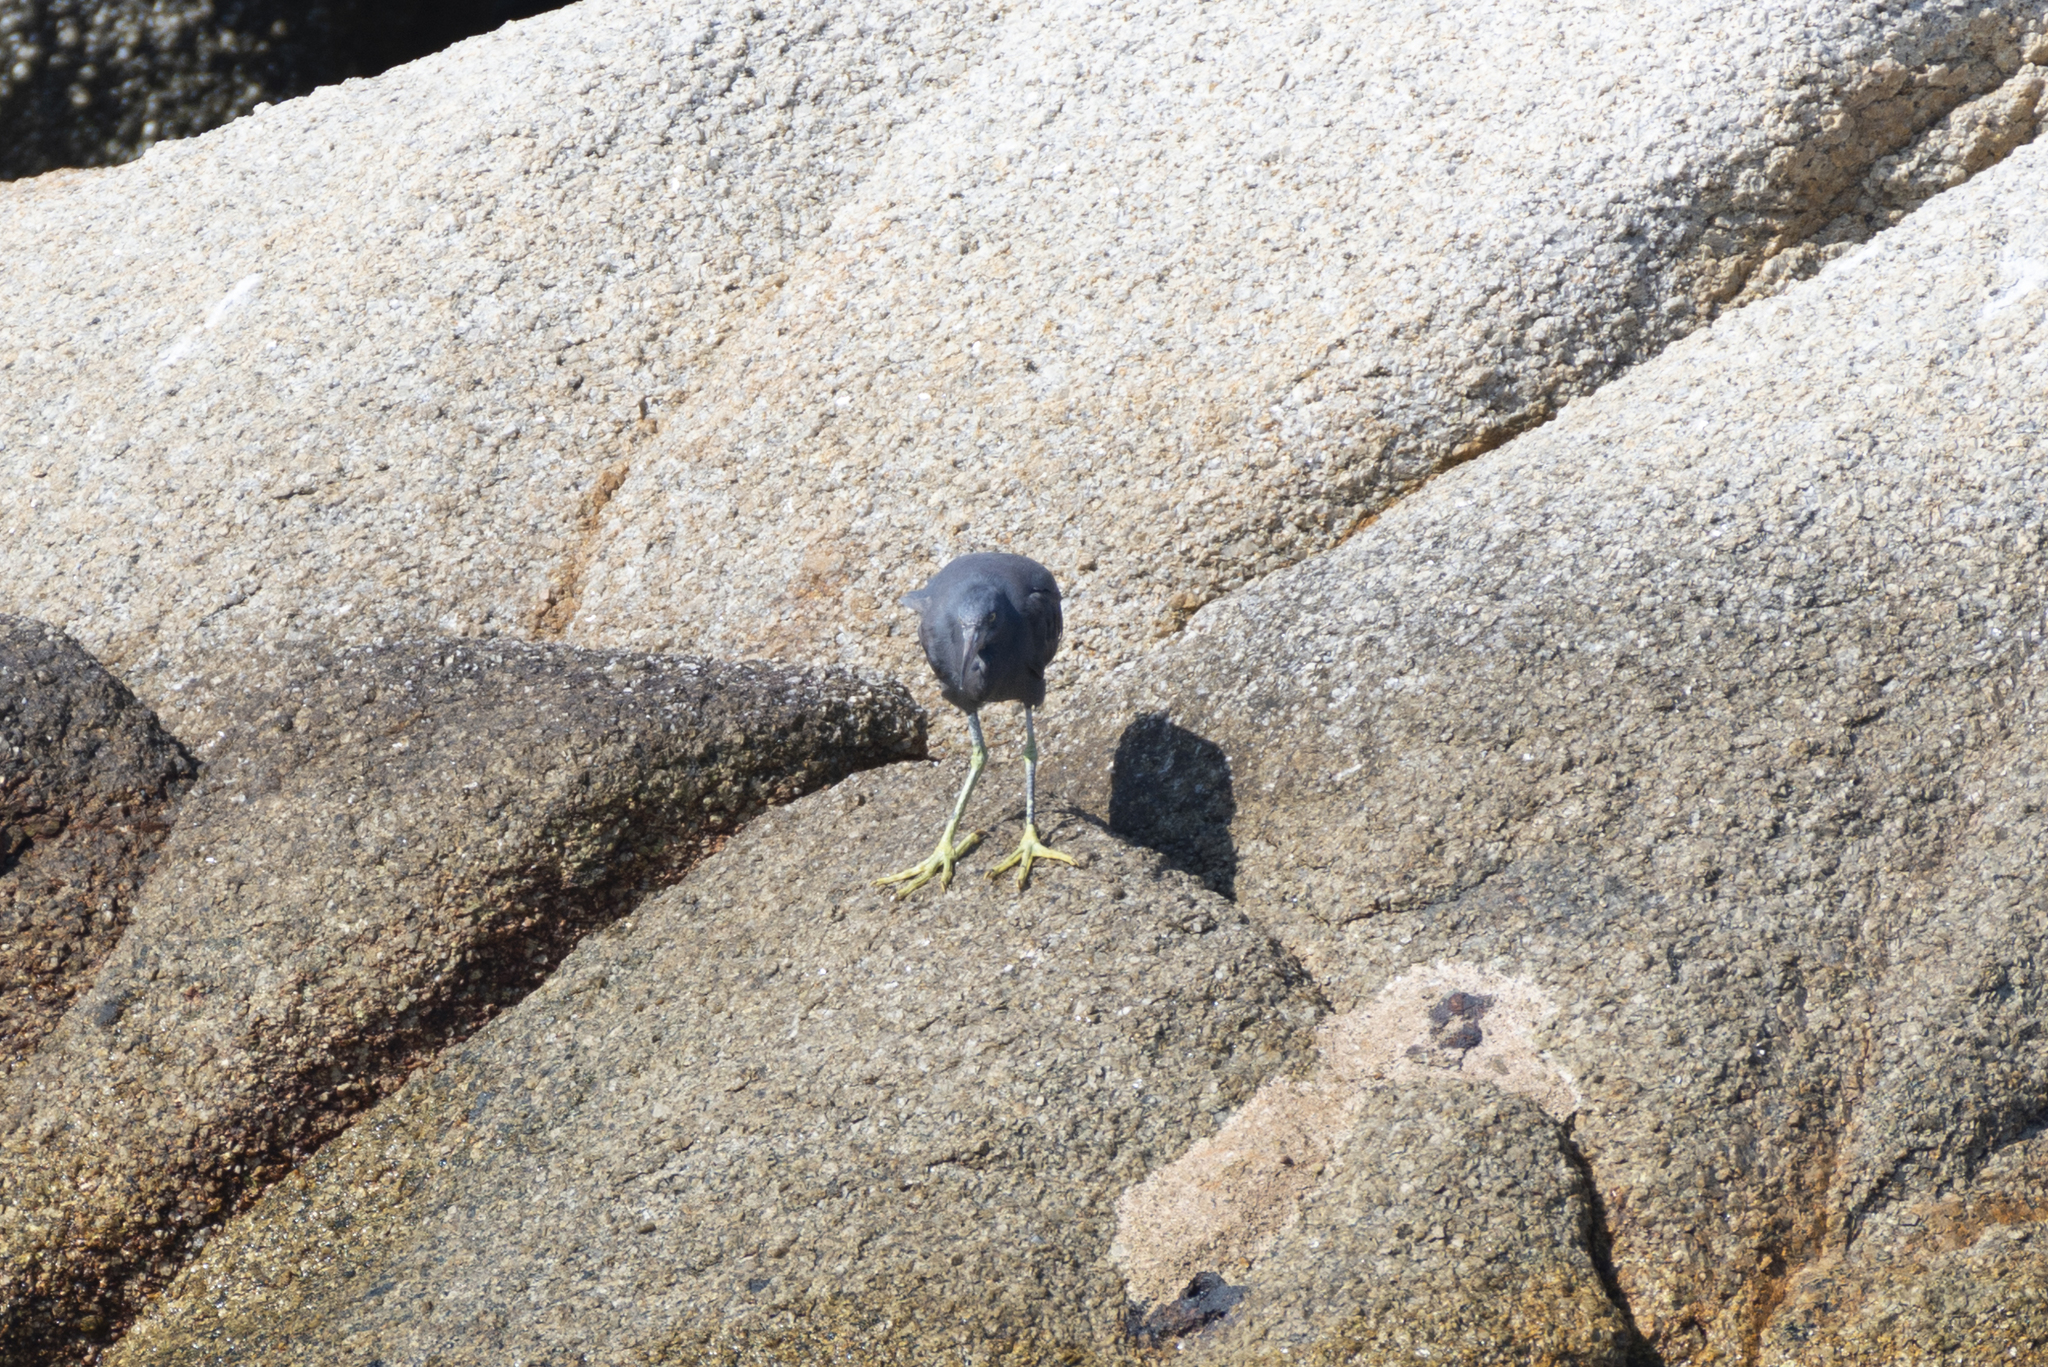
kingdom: Animalia
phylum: Chordata
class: Aves
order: Pelecaniformes
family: Ardeidae
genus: Egretta
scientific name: Egretta sacra
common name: Pacific reef heron
